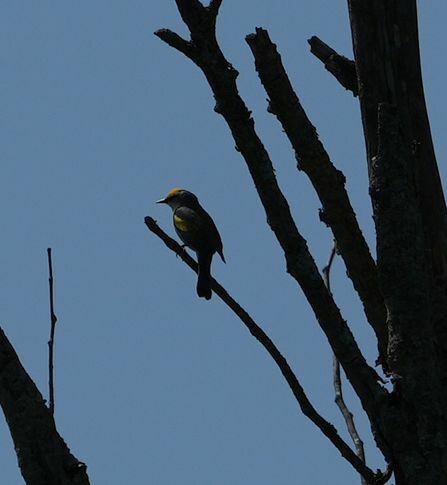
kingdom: Animalia
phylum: Chordata
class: Aves
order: Passeriformes
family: Parulidae
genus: Vermivora
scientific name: Vermivora chrysoptera
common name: Golden-winged warbler
